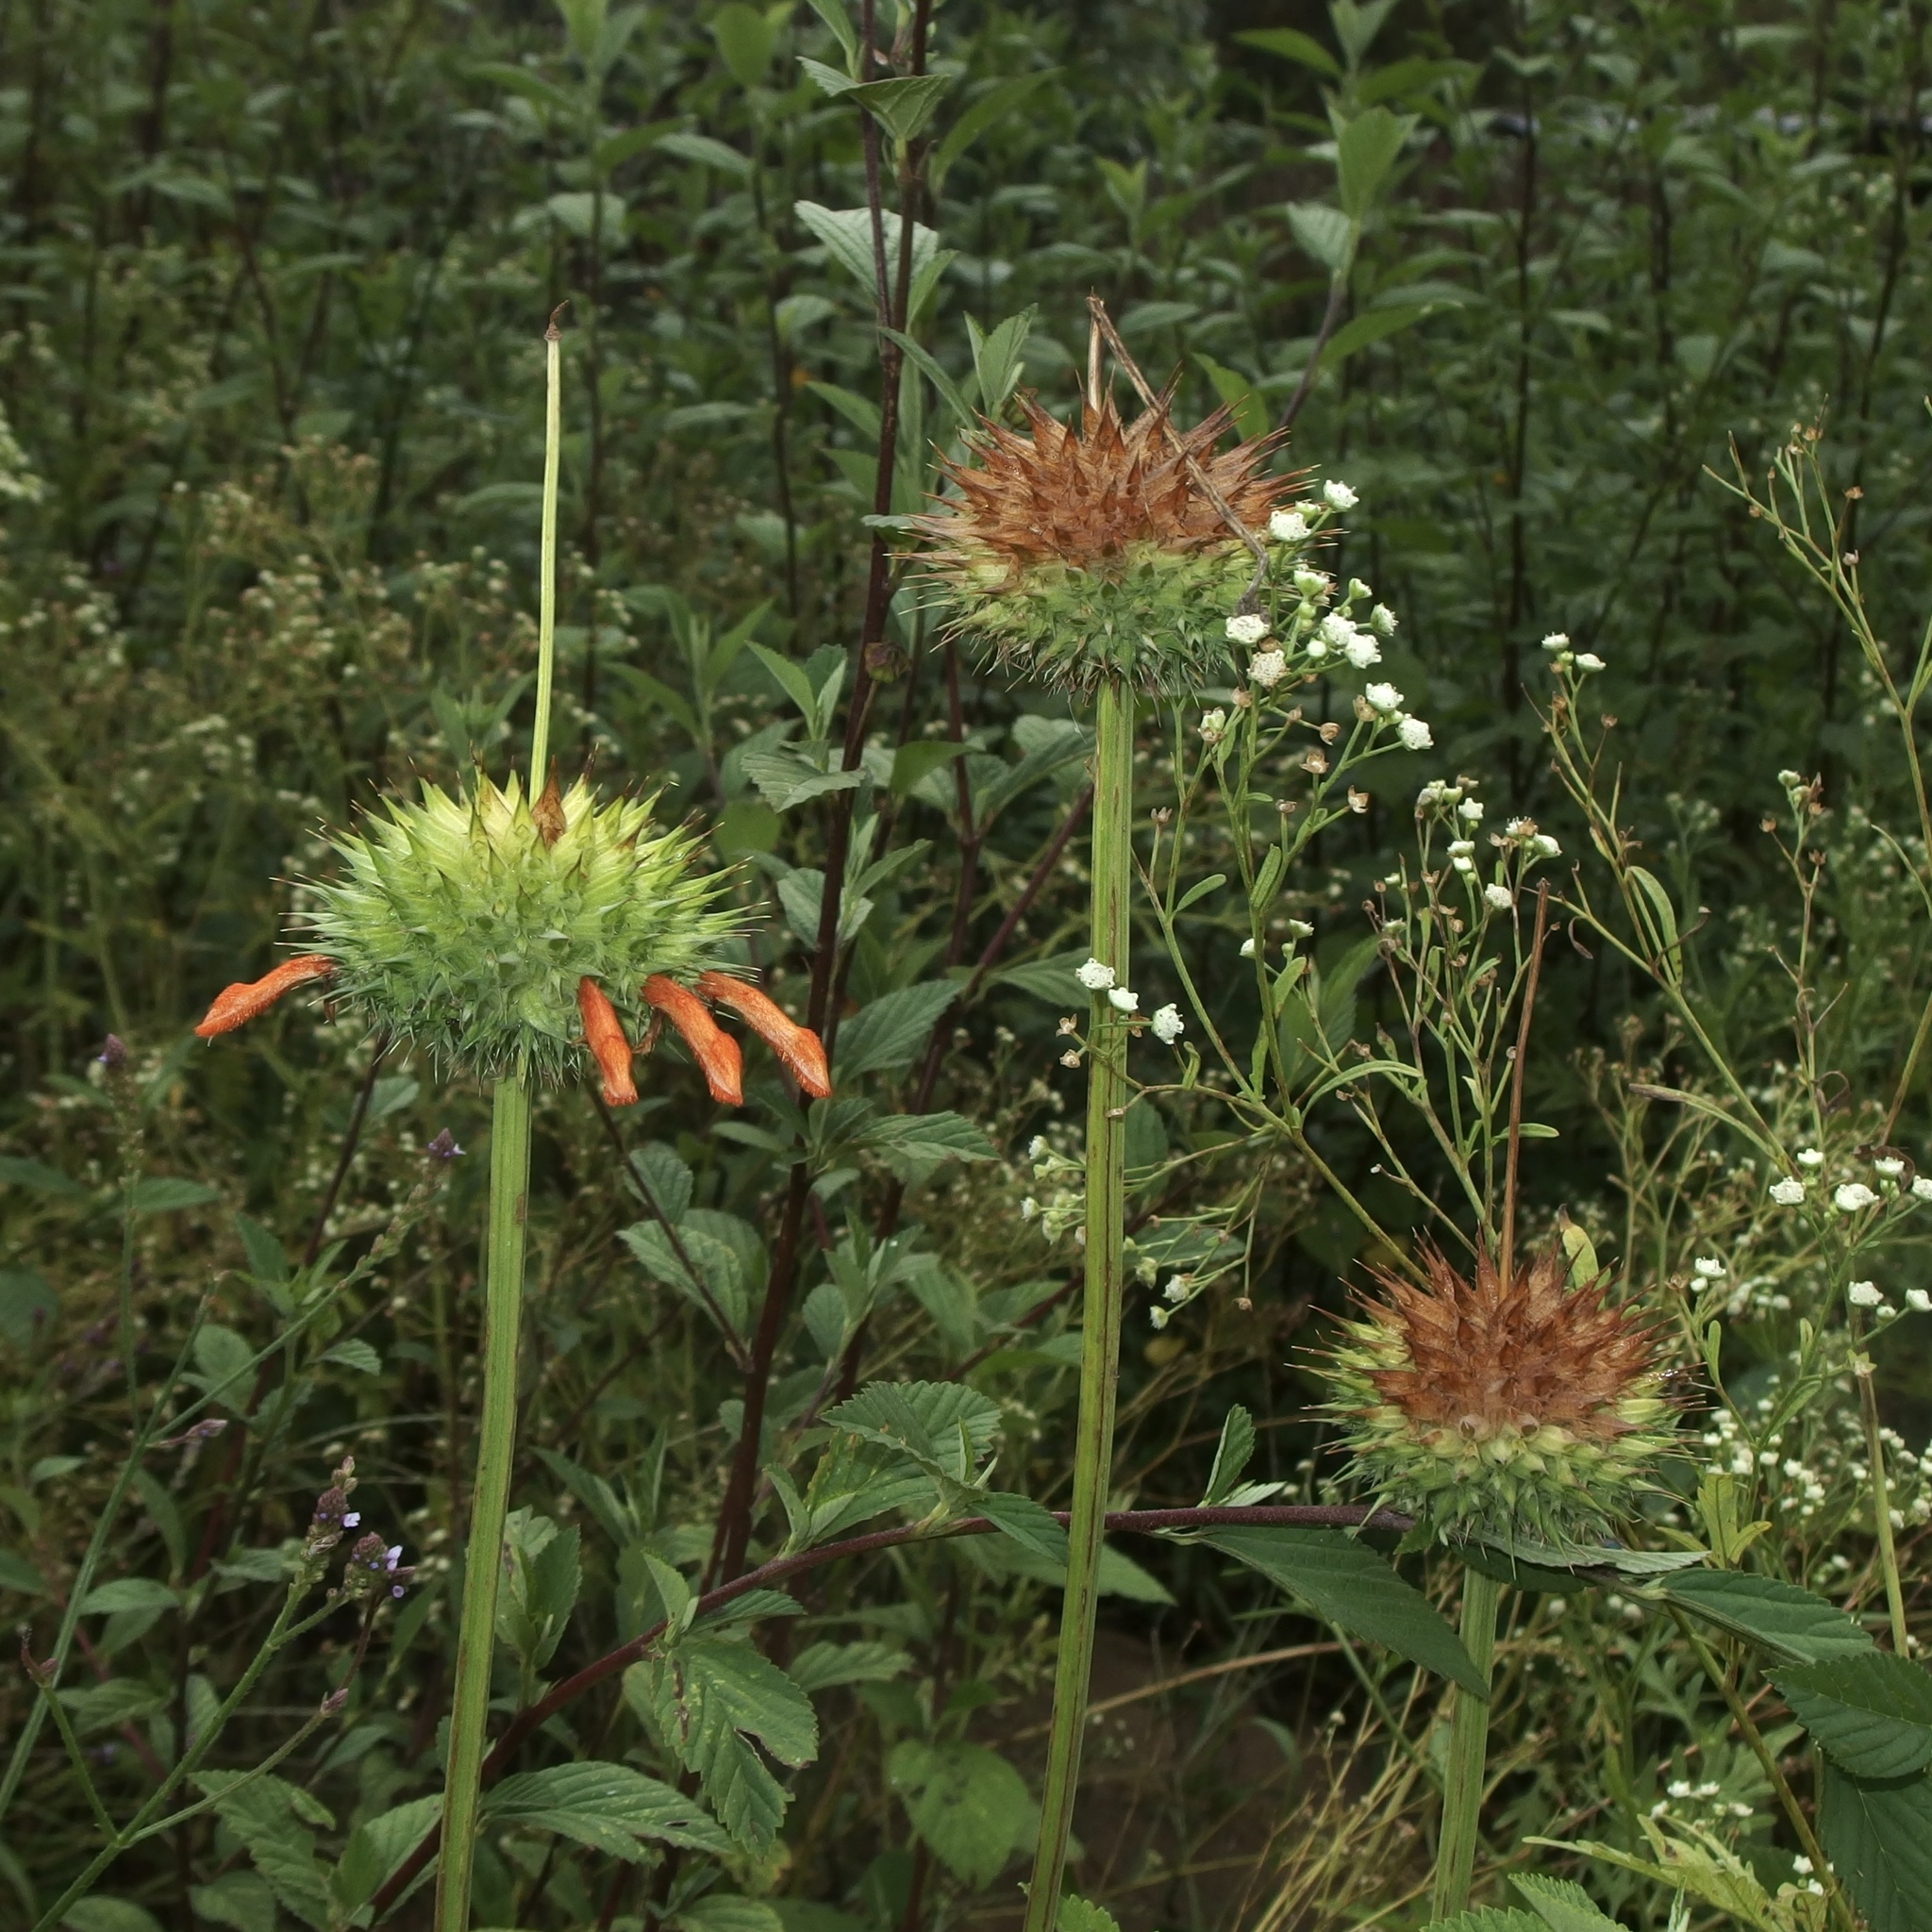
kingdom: Plantae
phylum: Tracheophyta
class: Magnoliopsida
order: Lamiales
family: Lamiaceae
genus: Leonotis
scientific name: Leonotis nepetifolia
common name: Christmas candlestick
